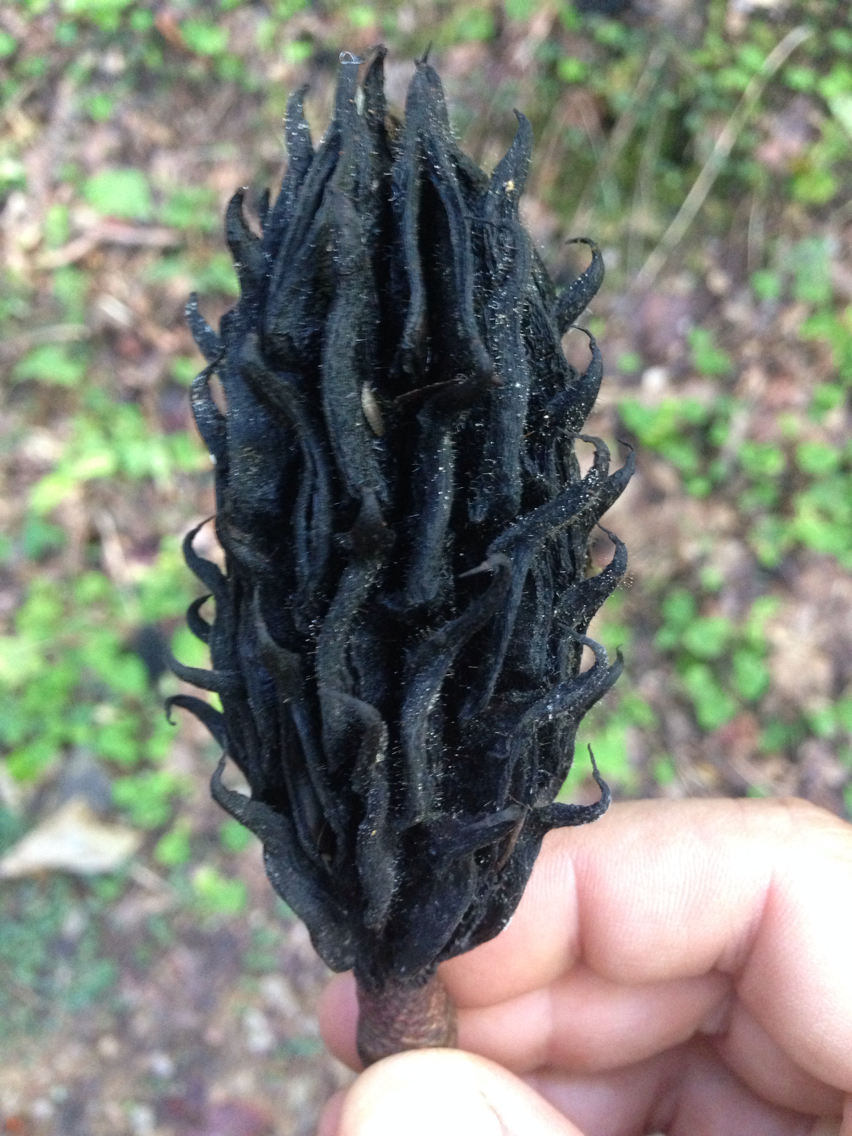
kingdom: Plantae
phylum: Tracheophyta
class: Magnoliopsida
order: Magnoliales
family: Magnoliaceae
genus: Magnolia
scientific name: Magnolia fraseri
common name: Fraser's magnolia
